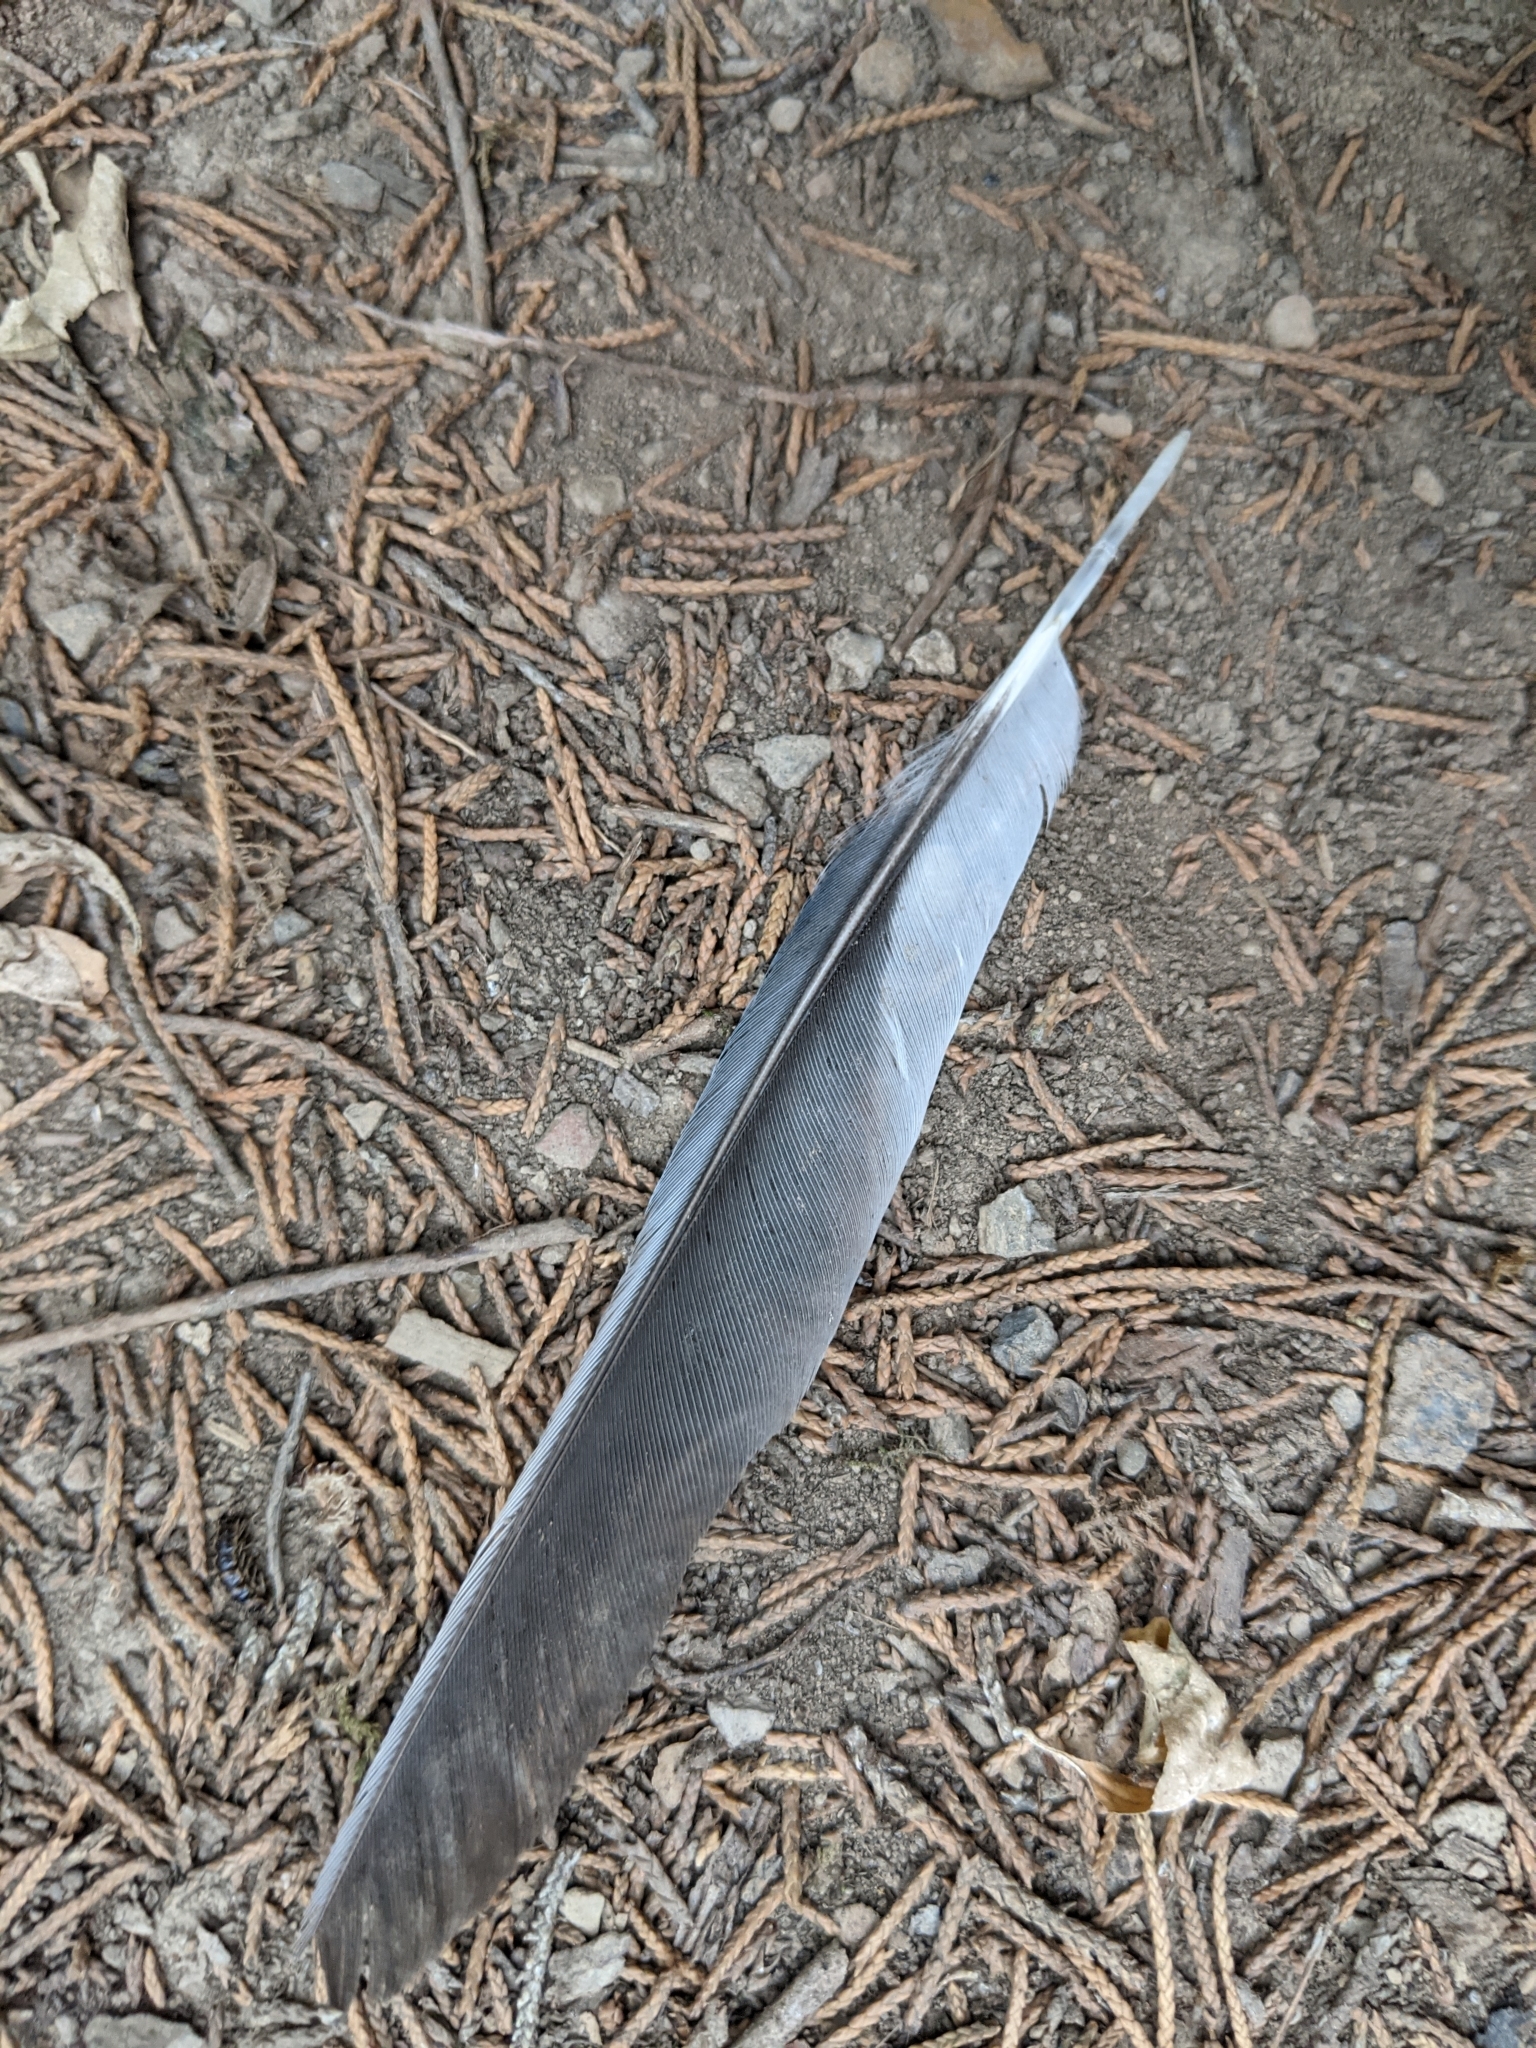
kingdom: Animalia
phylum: Chordata
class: Aves
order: Passeriformes
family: Corvidae
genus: Cyanocitta
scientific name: Cyanocitta cristata
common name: Blue jay
